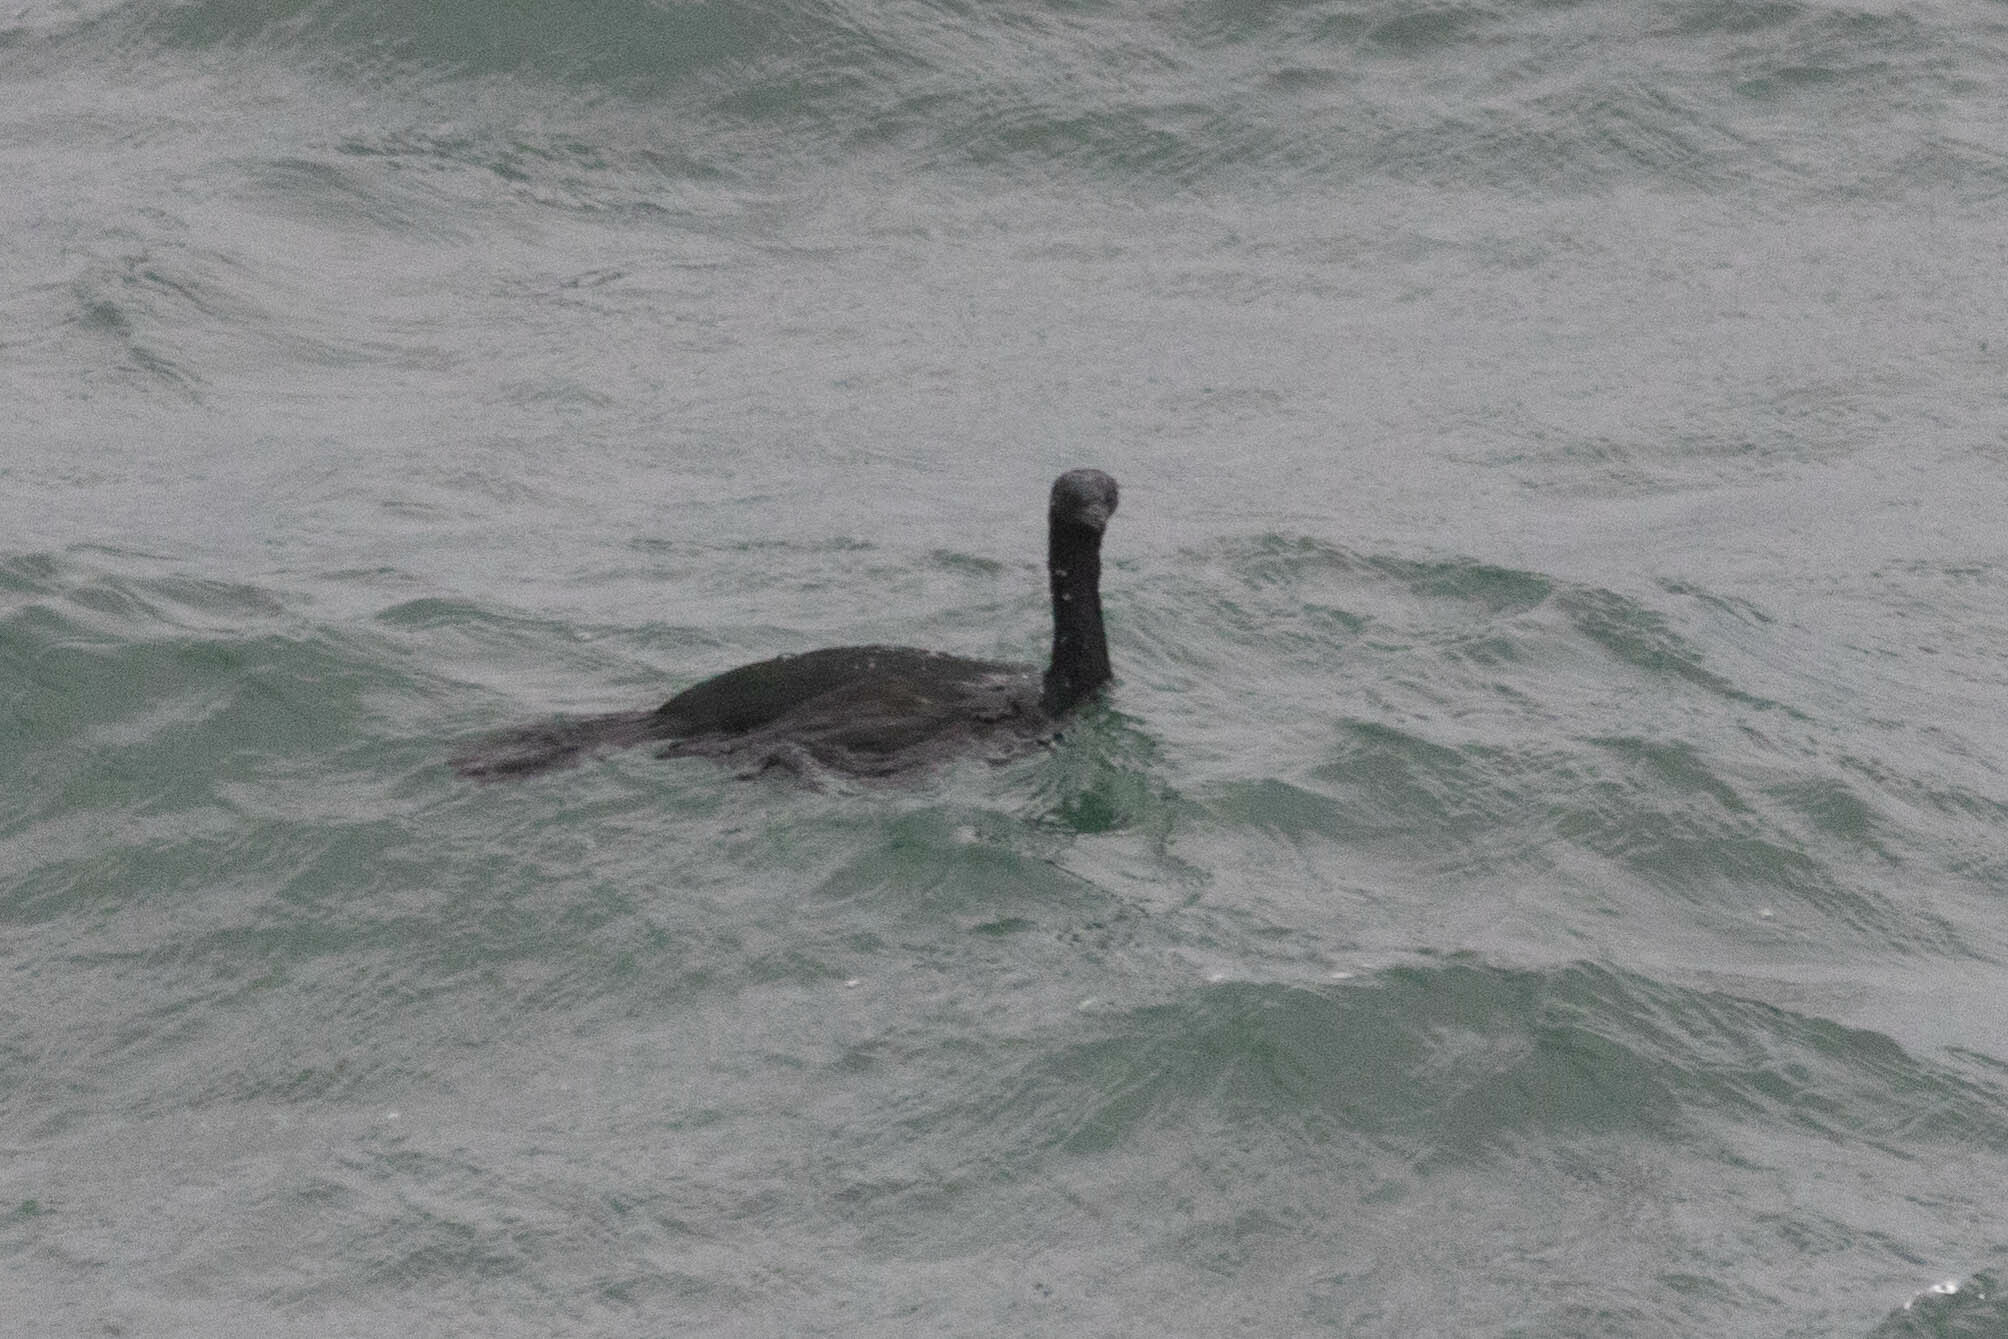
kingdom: Animalia
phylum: Chordata
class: Aves
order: Suliformes
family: Phalacrocoracidae
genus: Phalacrocorax
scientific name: Phalacrocorax pelagicus
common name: Pelagic cormorant
